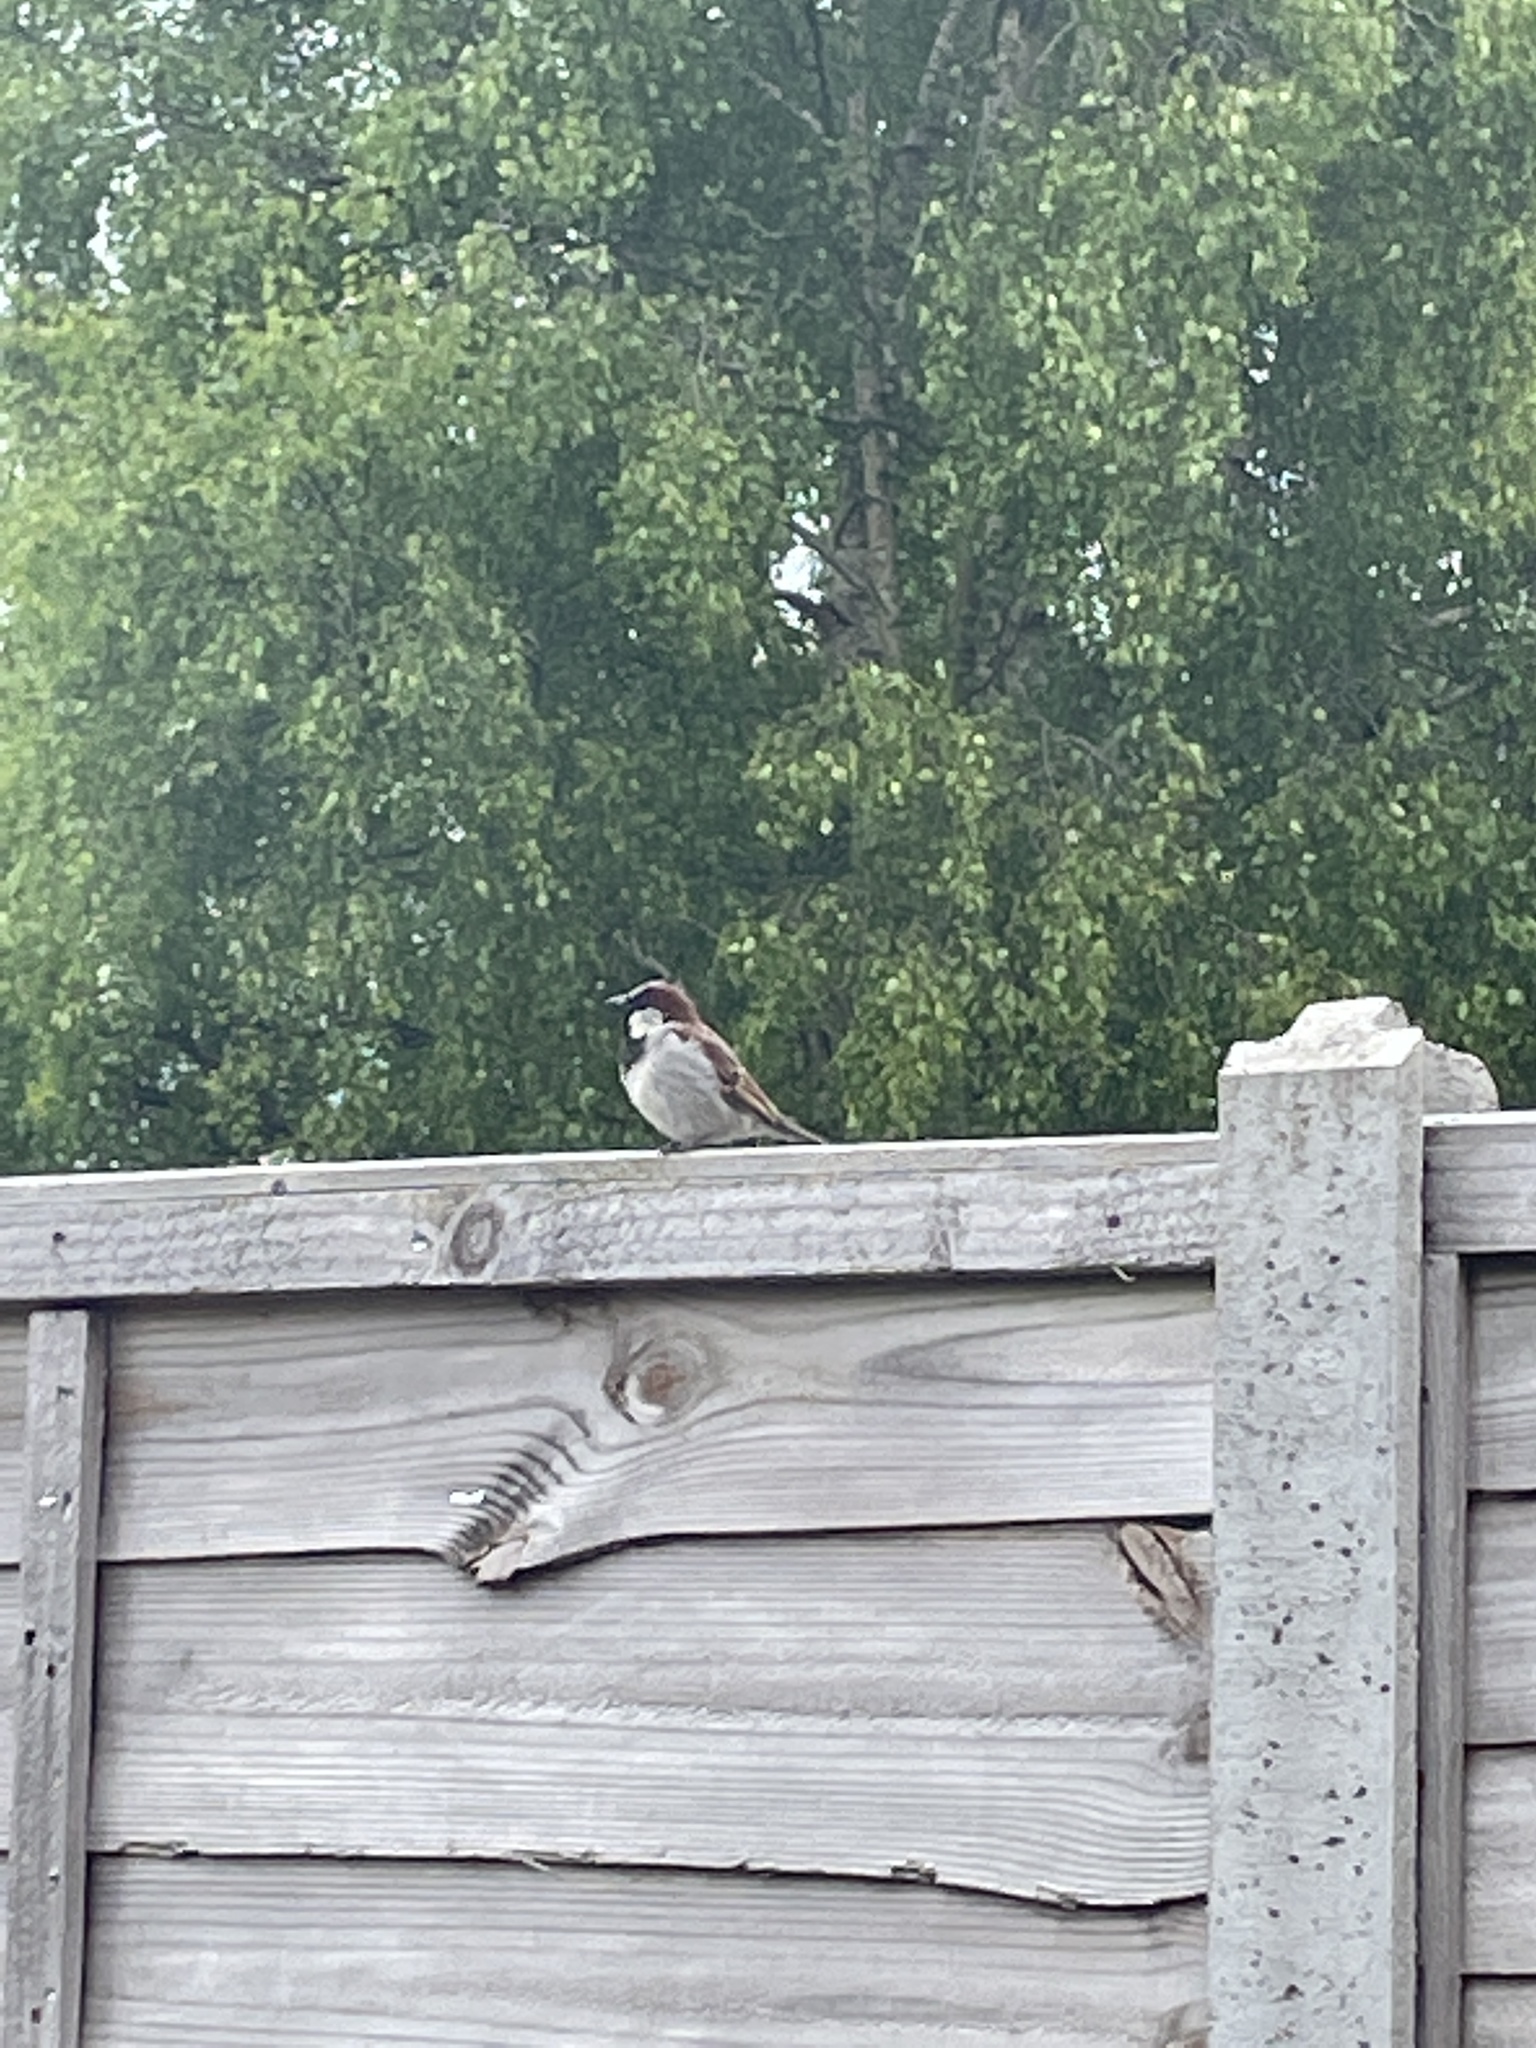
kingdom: Animalia
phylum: Chordata
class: Aves
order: Passeriformes
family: Passeridae
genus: Passer
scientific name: Passer domesticus
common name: House sparrow
